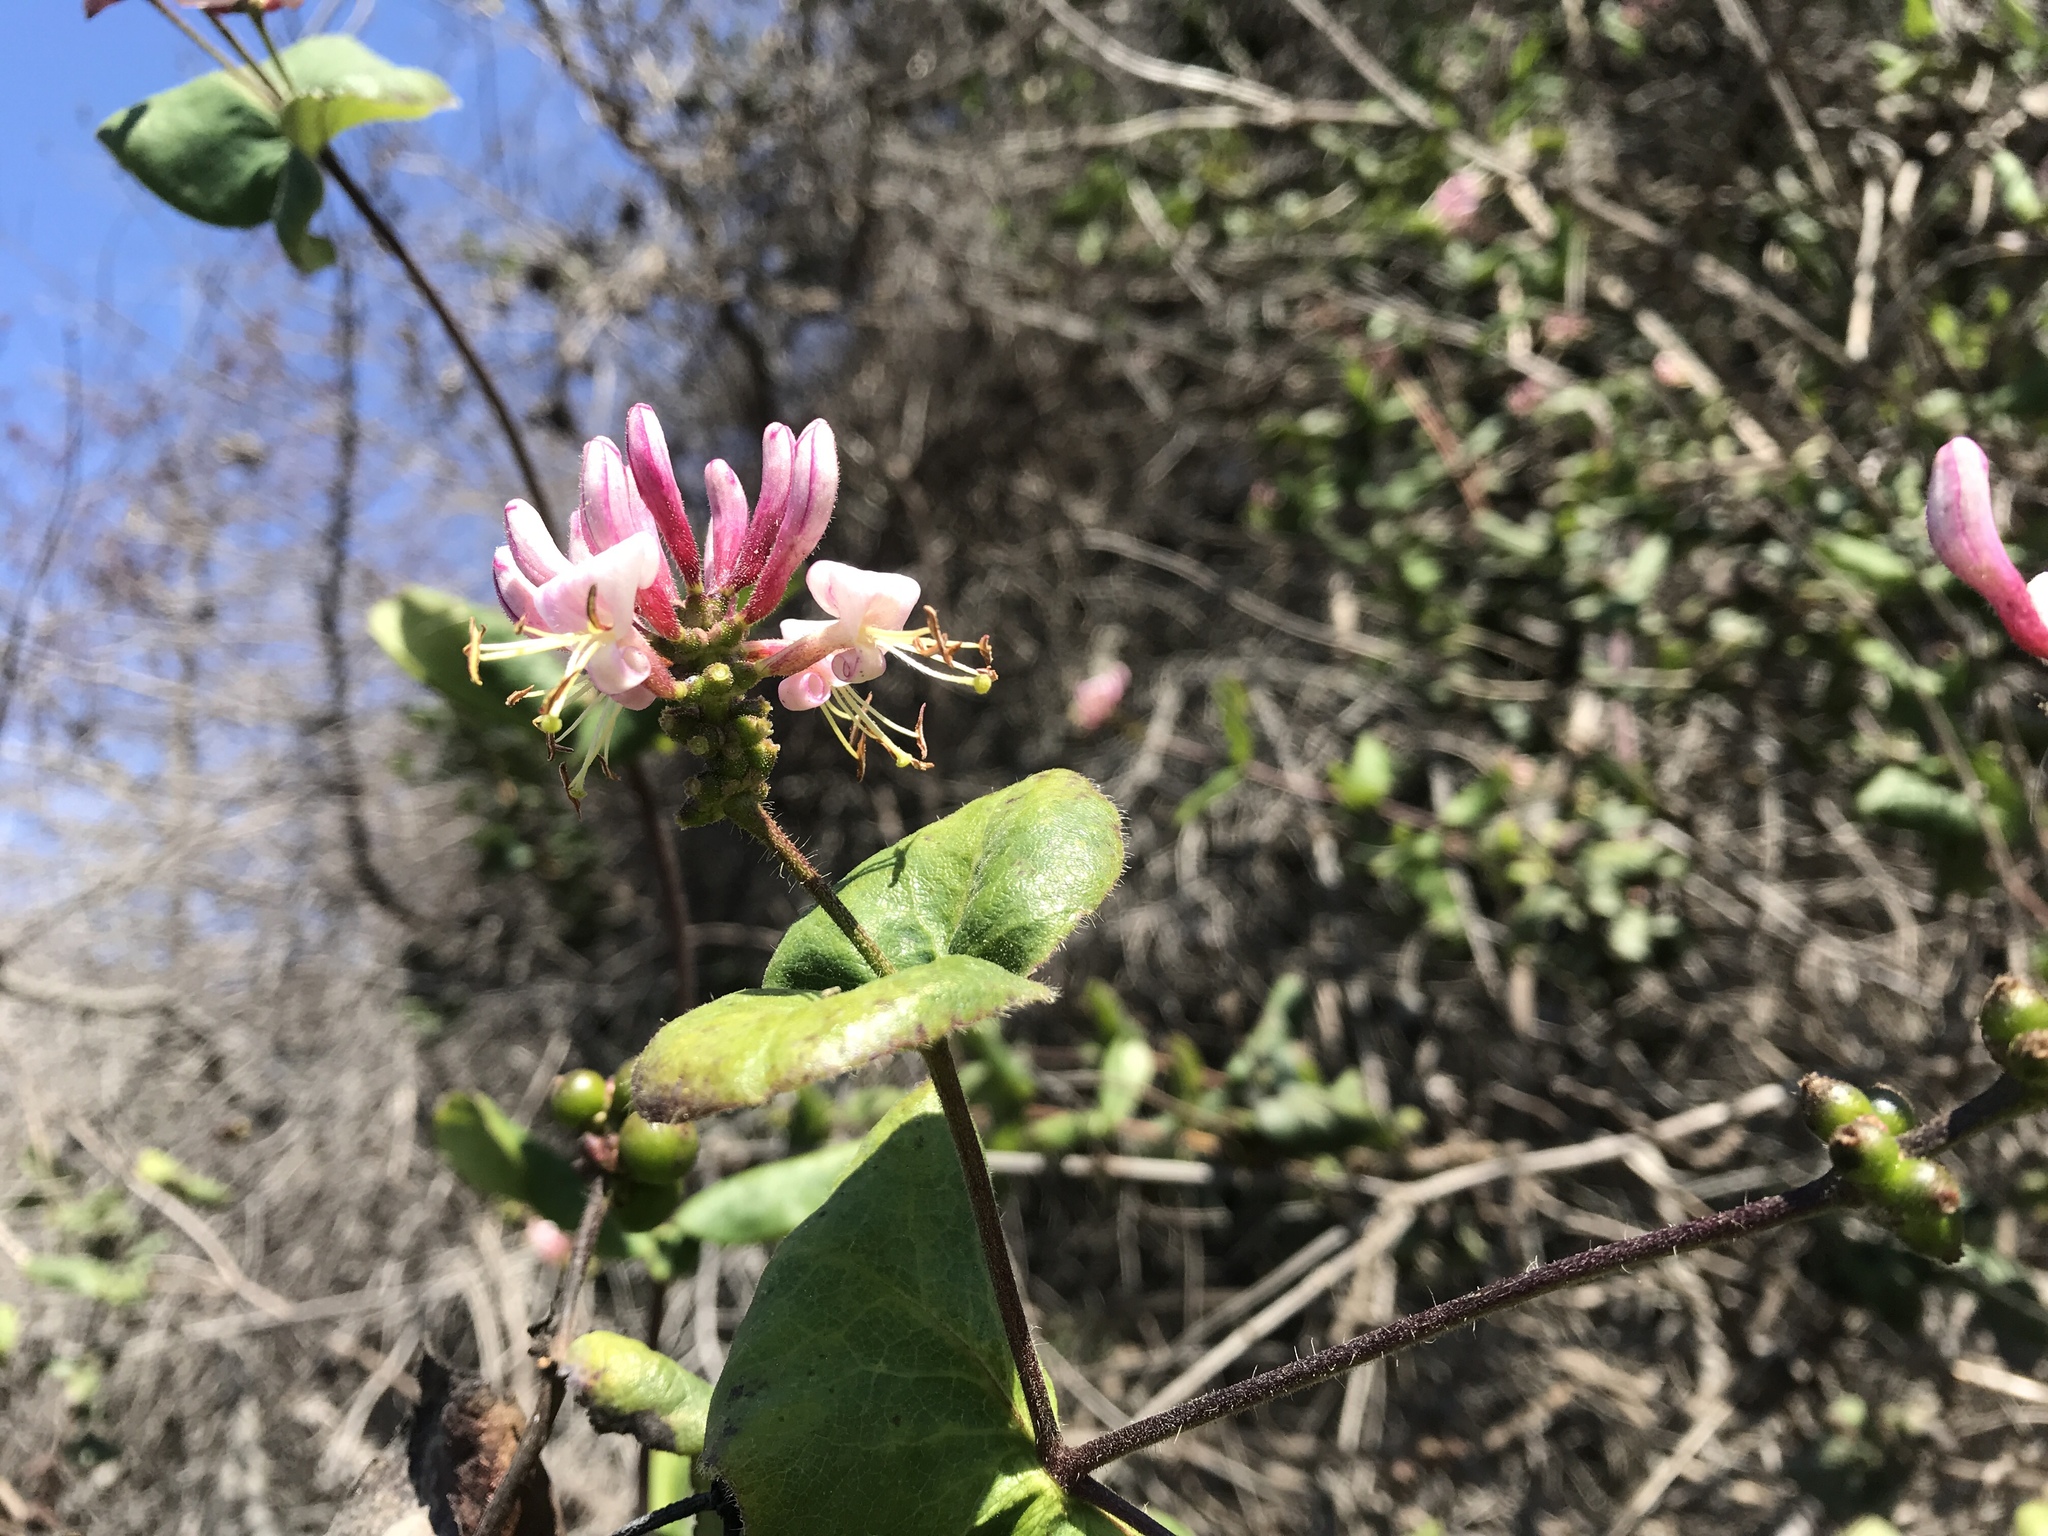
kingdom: Plantae
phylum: Tracheophyta
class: Magnoliopsida
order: Dipsacales
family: Caprifoliaceae
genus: Lonicera
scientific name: Lonicera hispidula
